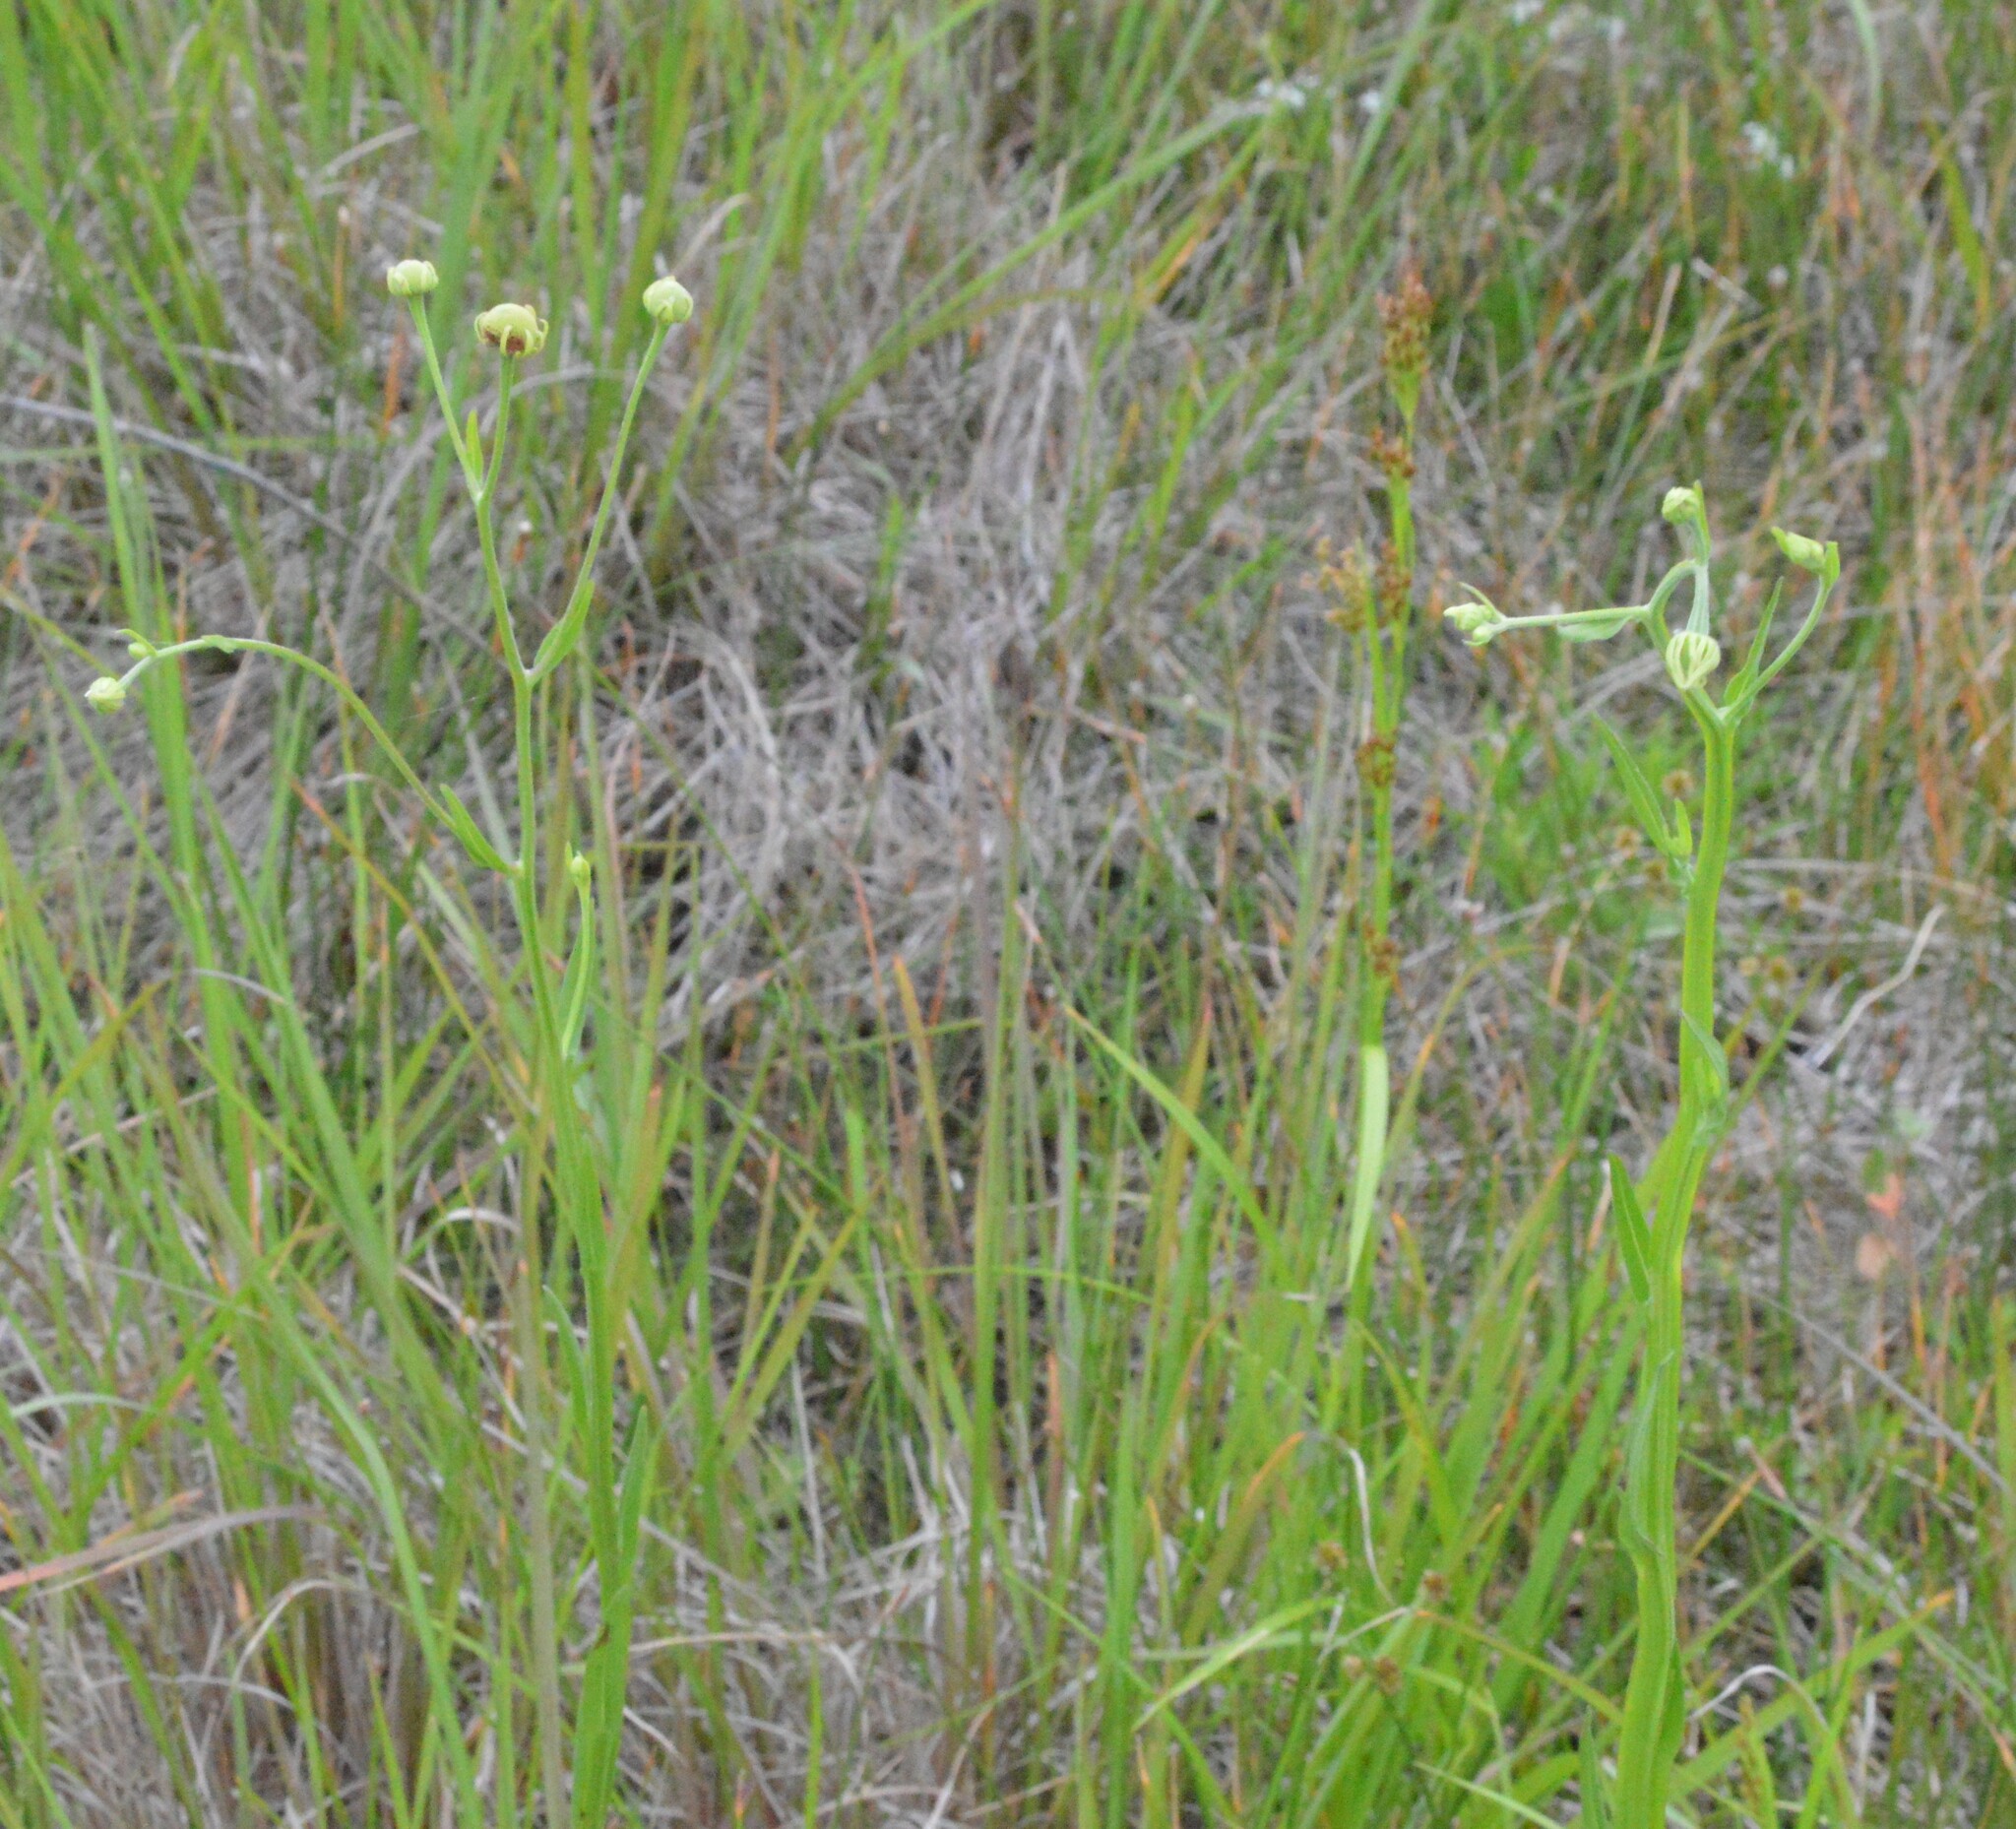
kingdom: Plantae
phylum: Tracheophyta
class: Magnoliopsida
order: Asterales
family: Asteraceae
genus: Helenium
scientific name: Helenium flexuosum
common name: Naked-flowered sneezeweed
